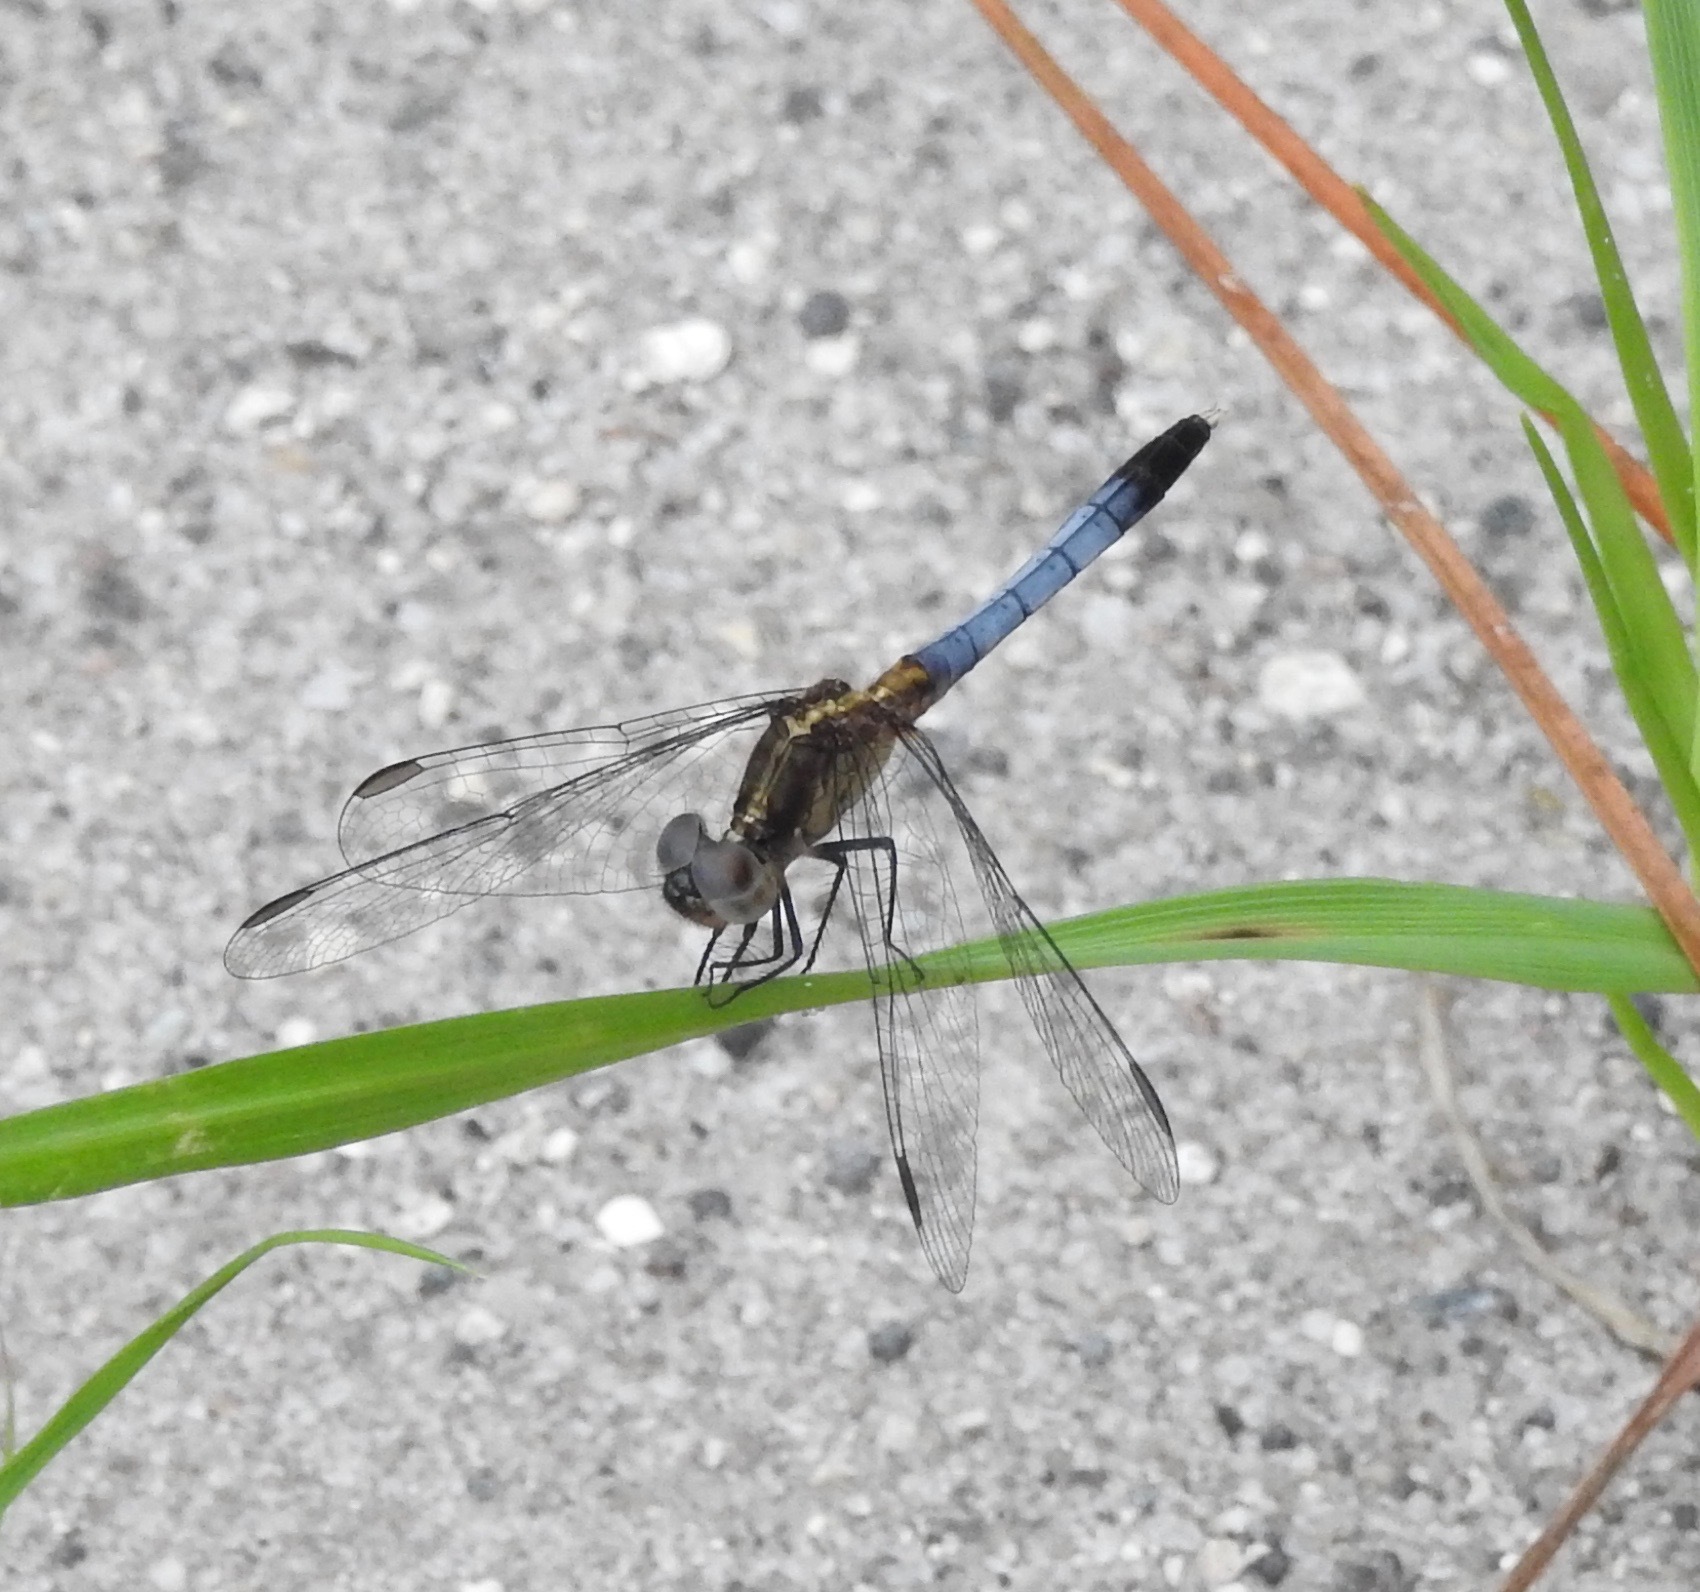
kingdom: Animalia
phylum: Arthropoda
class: Insecta
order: Odonata
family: Libellulidae
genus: Erythrodiplax
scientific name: Erythrodiplax minuscula
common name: Little blue dragonlet
